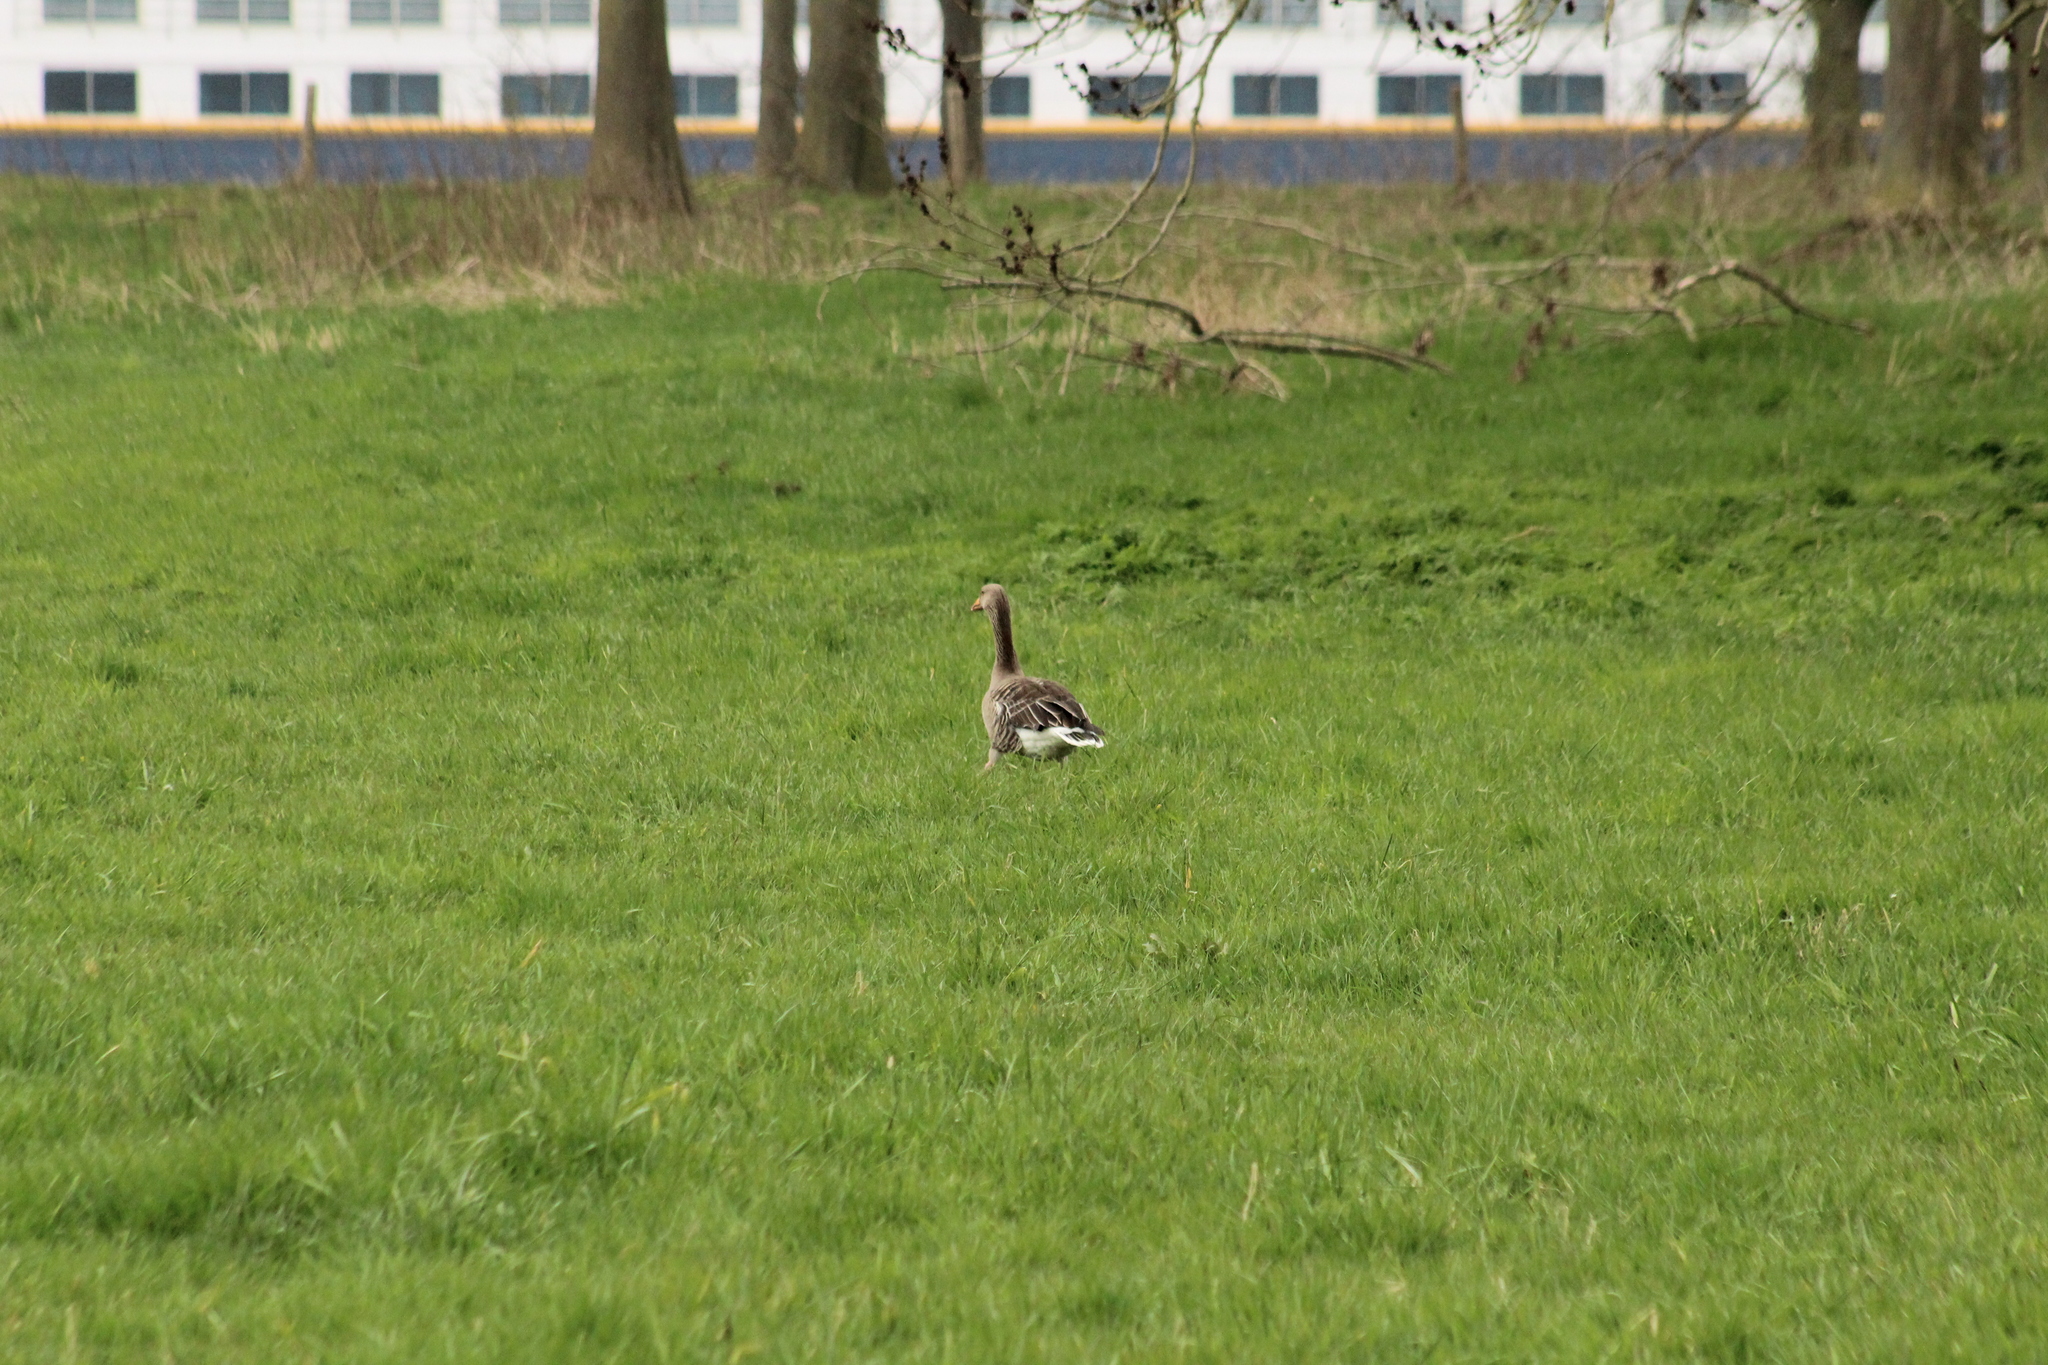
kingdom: Animalia
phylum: Chordata
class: Aves
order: Anseriformes
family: Anatidae
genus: Anser
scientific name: Anser anser
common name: Greylag goose
